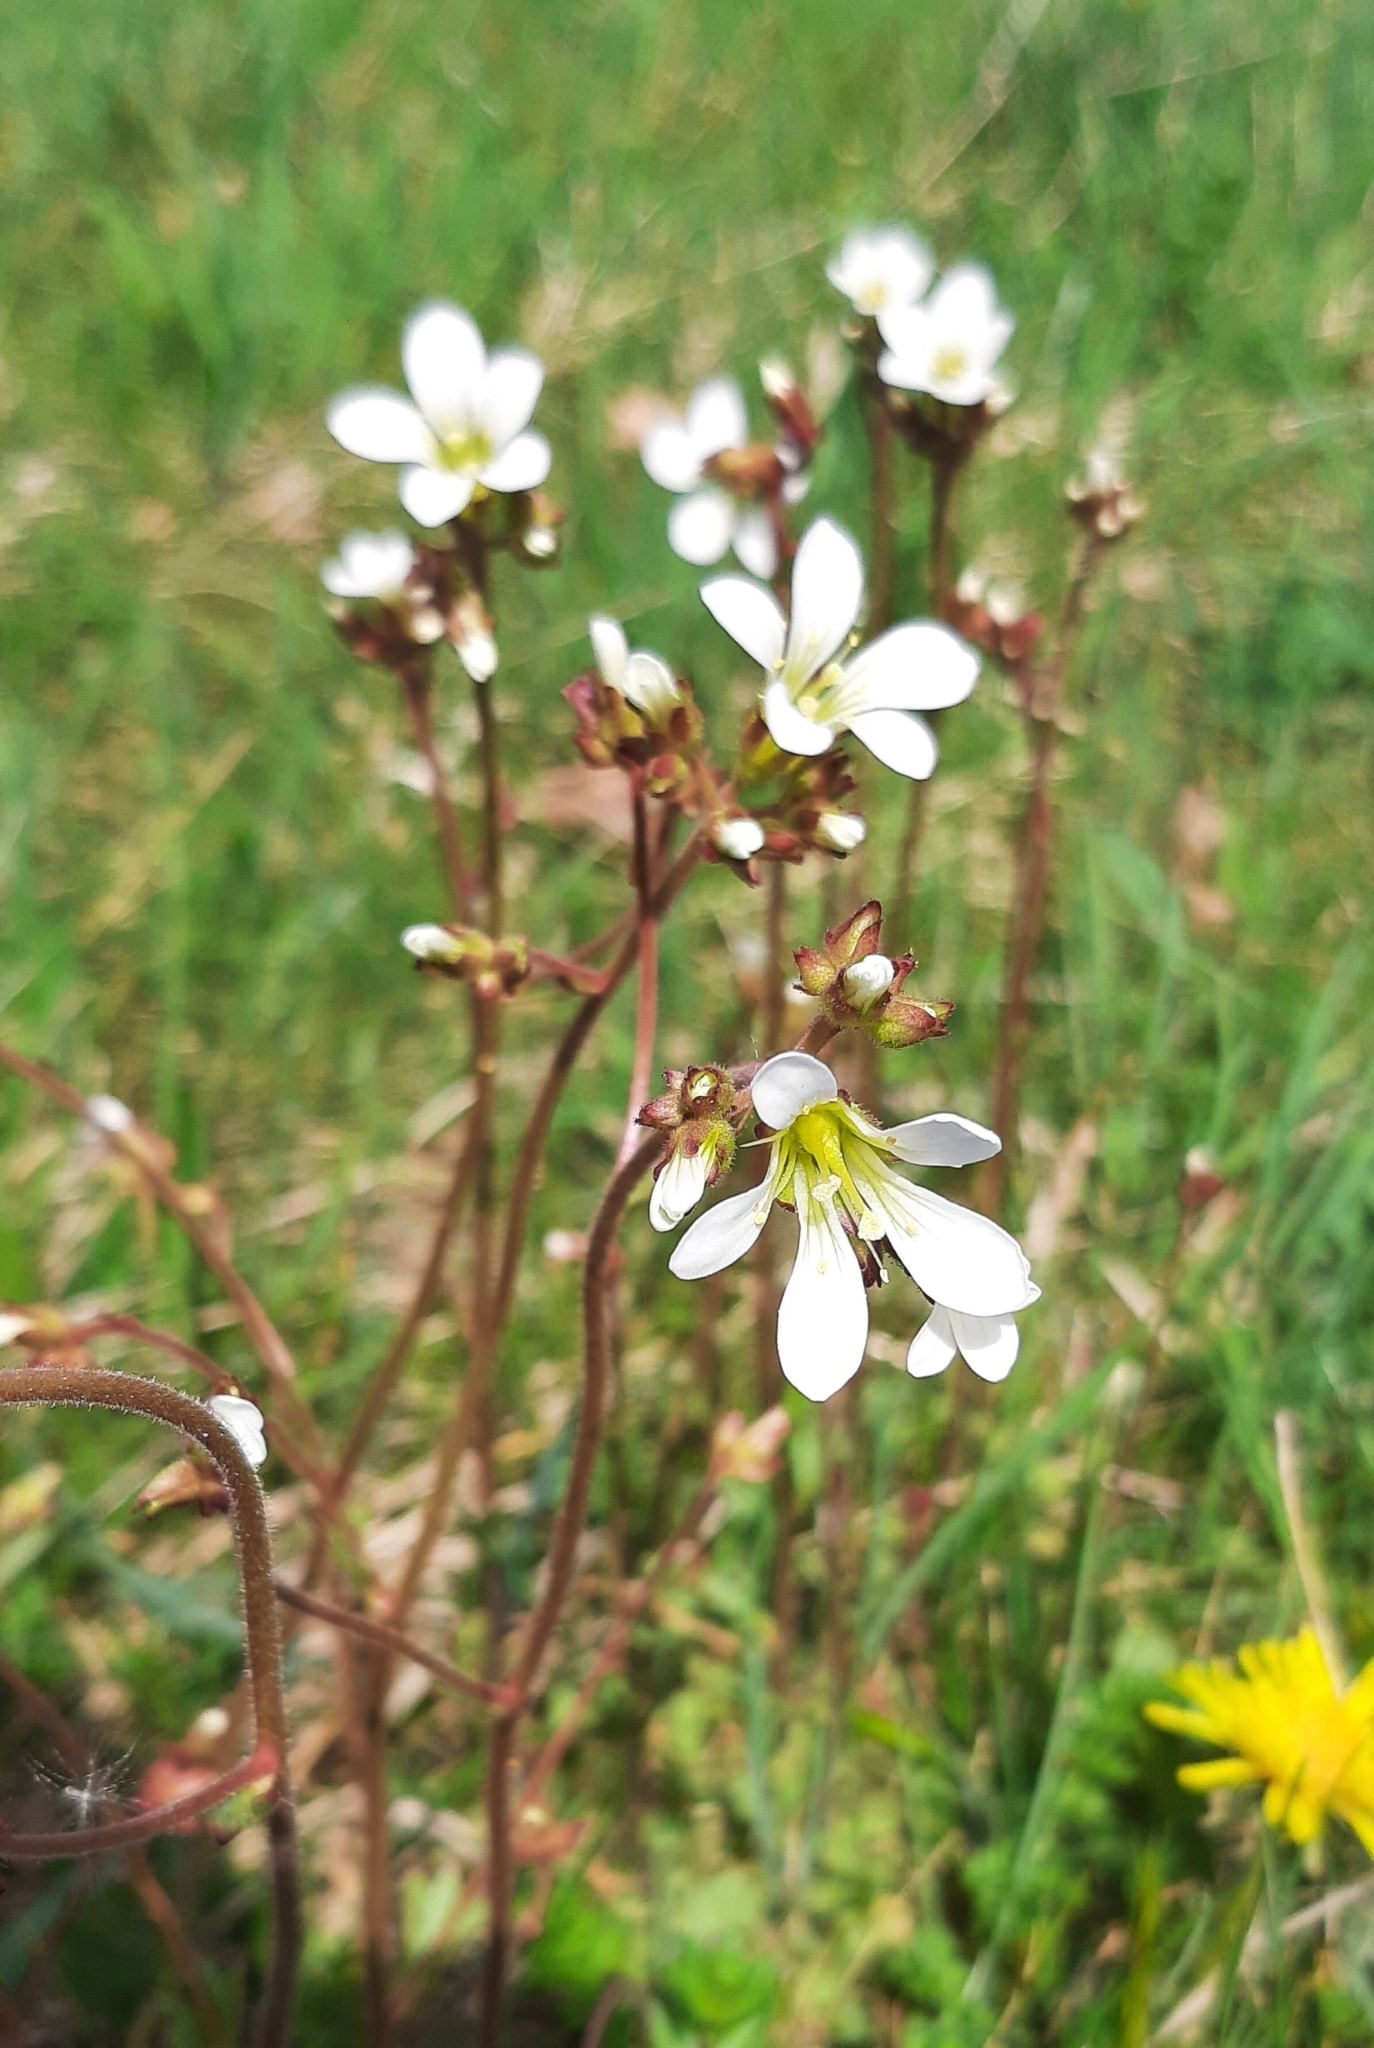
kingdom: Plantae
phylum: Tracheophyta
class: Magnoliopsida
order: Saxifragales
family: Saxifragaceae
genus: Saxifraga
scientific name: Saxifraga granulata
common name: Meadow saxifrage
